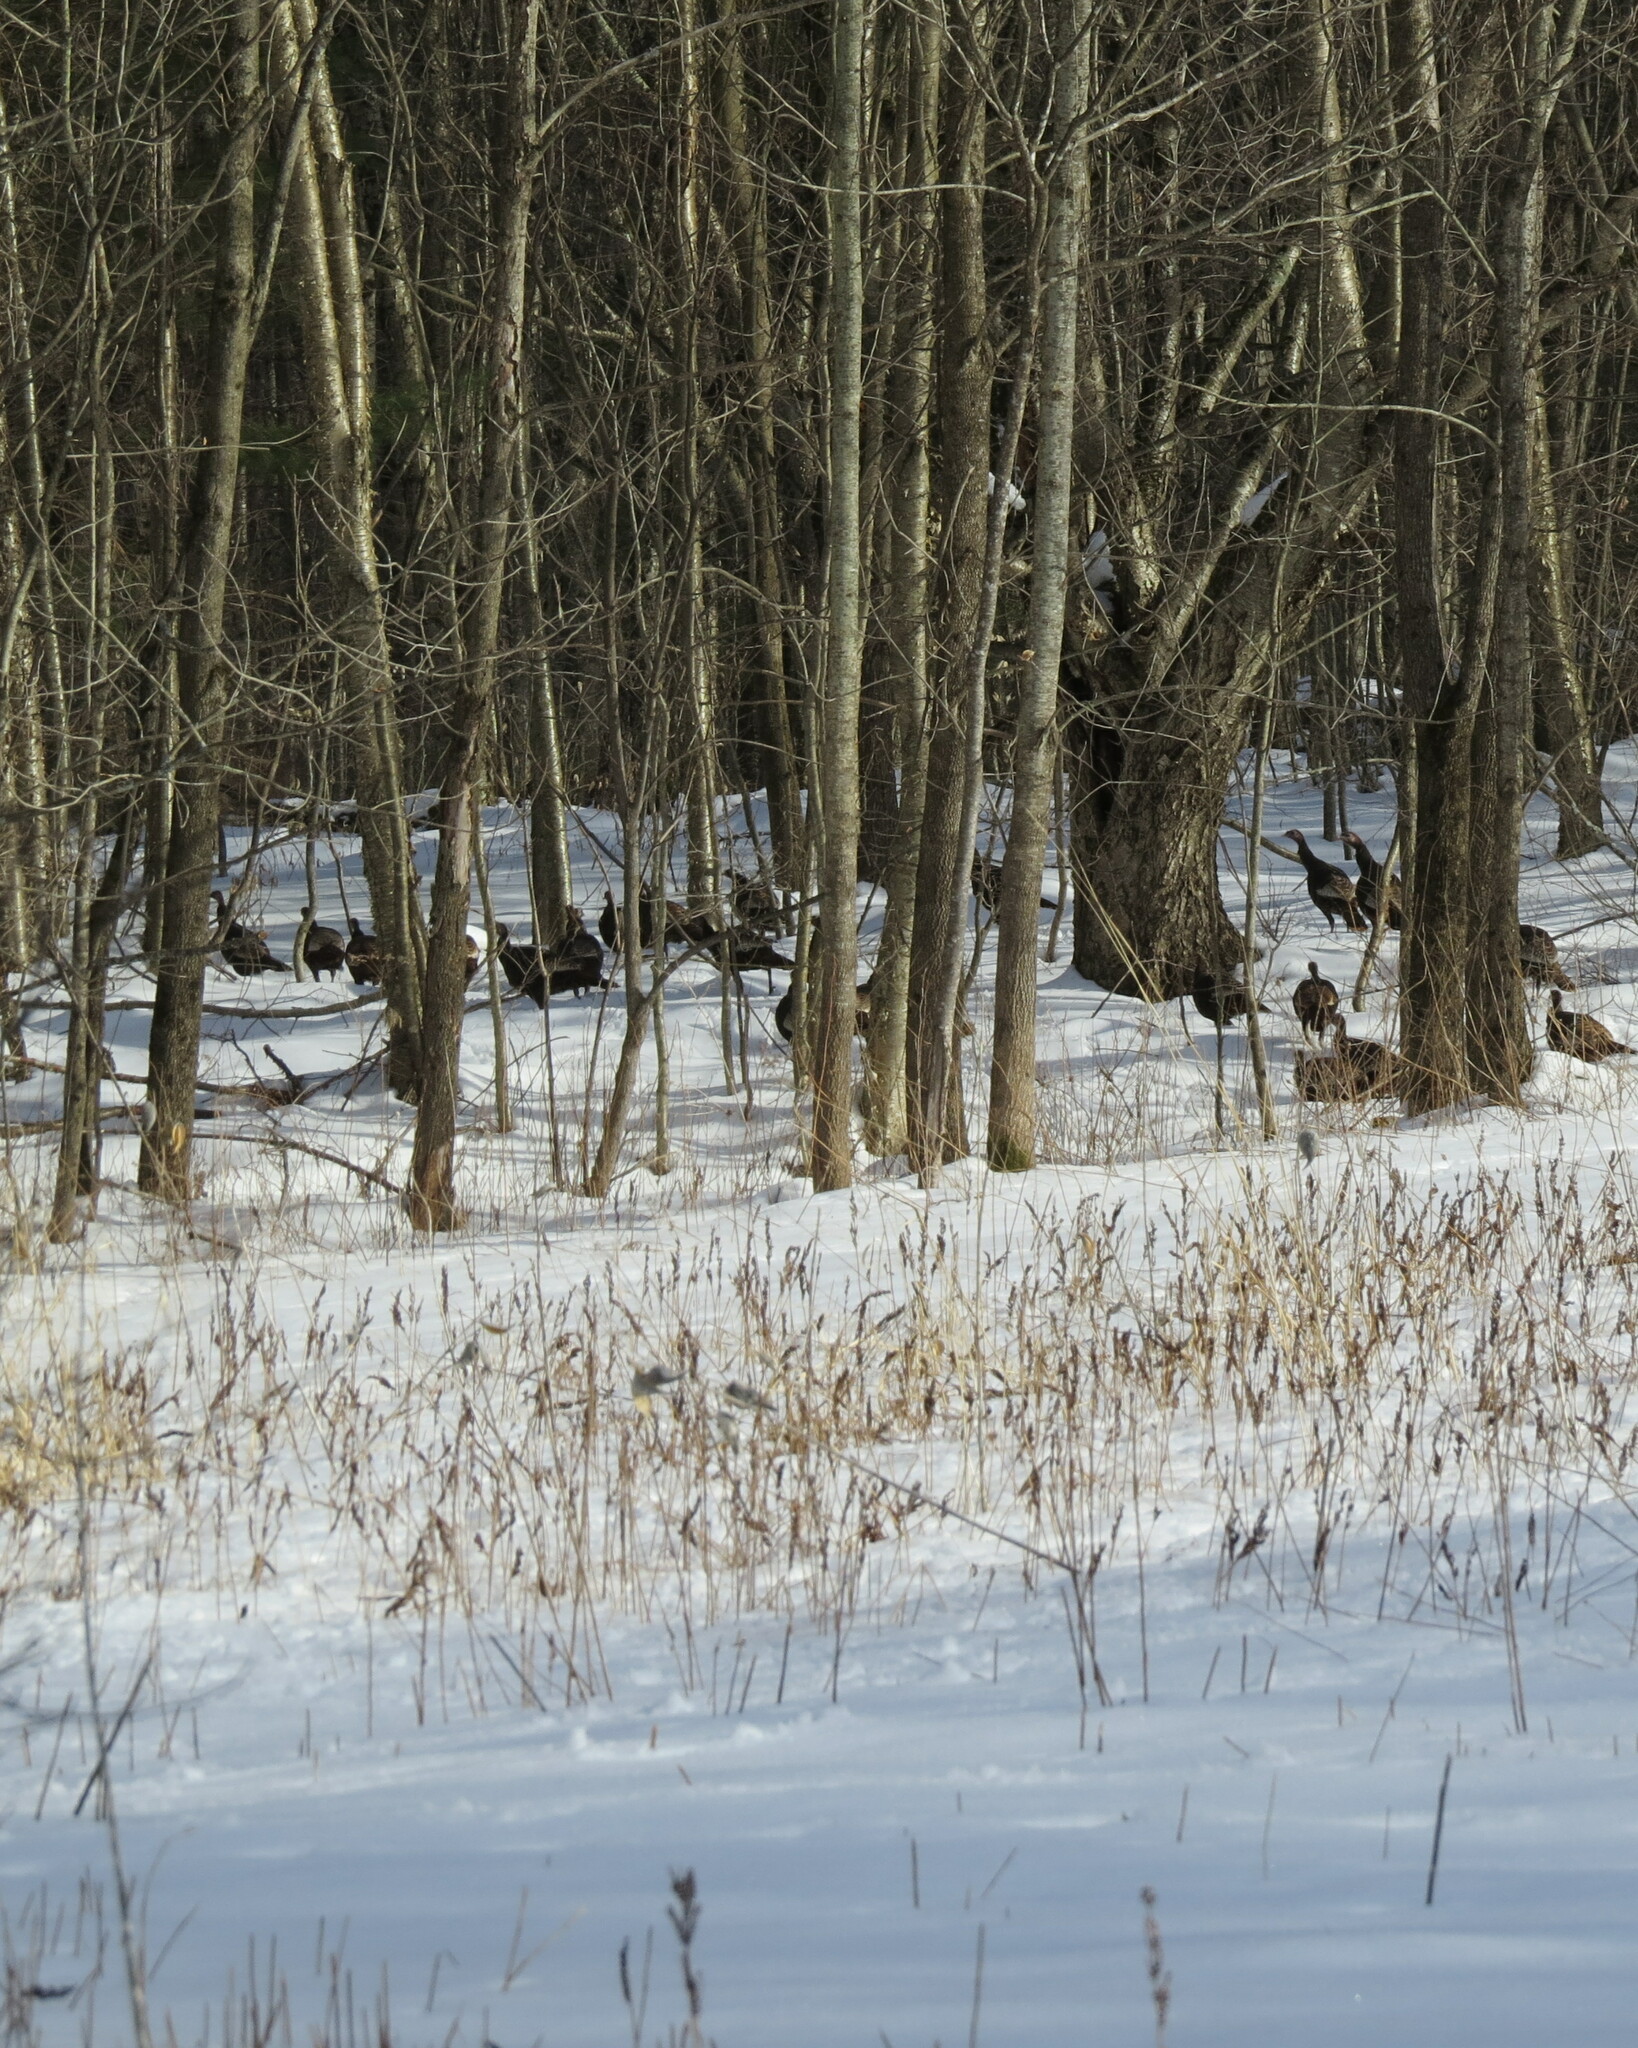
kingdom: Animalia
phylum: Chordata
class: Aves
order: Galliformes
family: Phasianidae
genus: Meleagris
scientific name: Meleagris gallopavo
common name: Wild turkey
